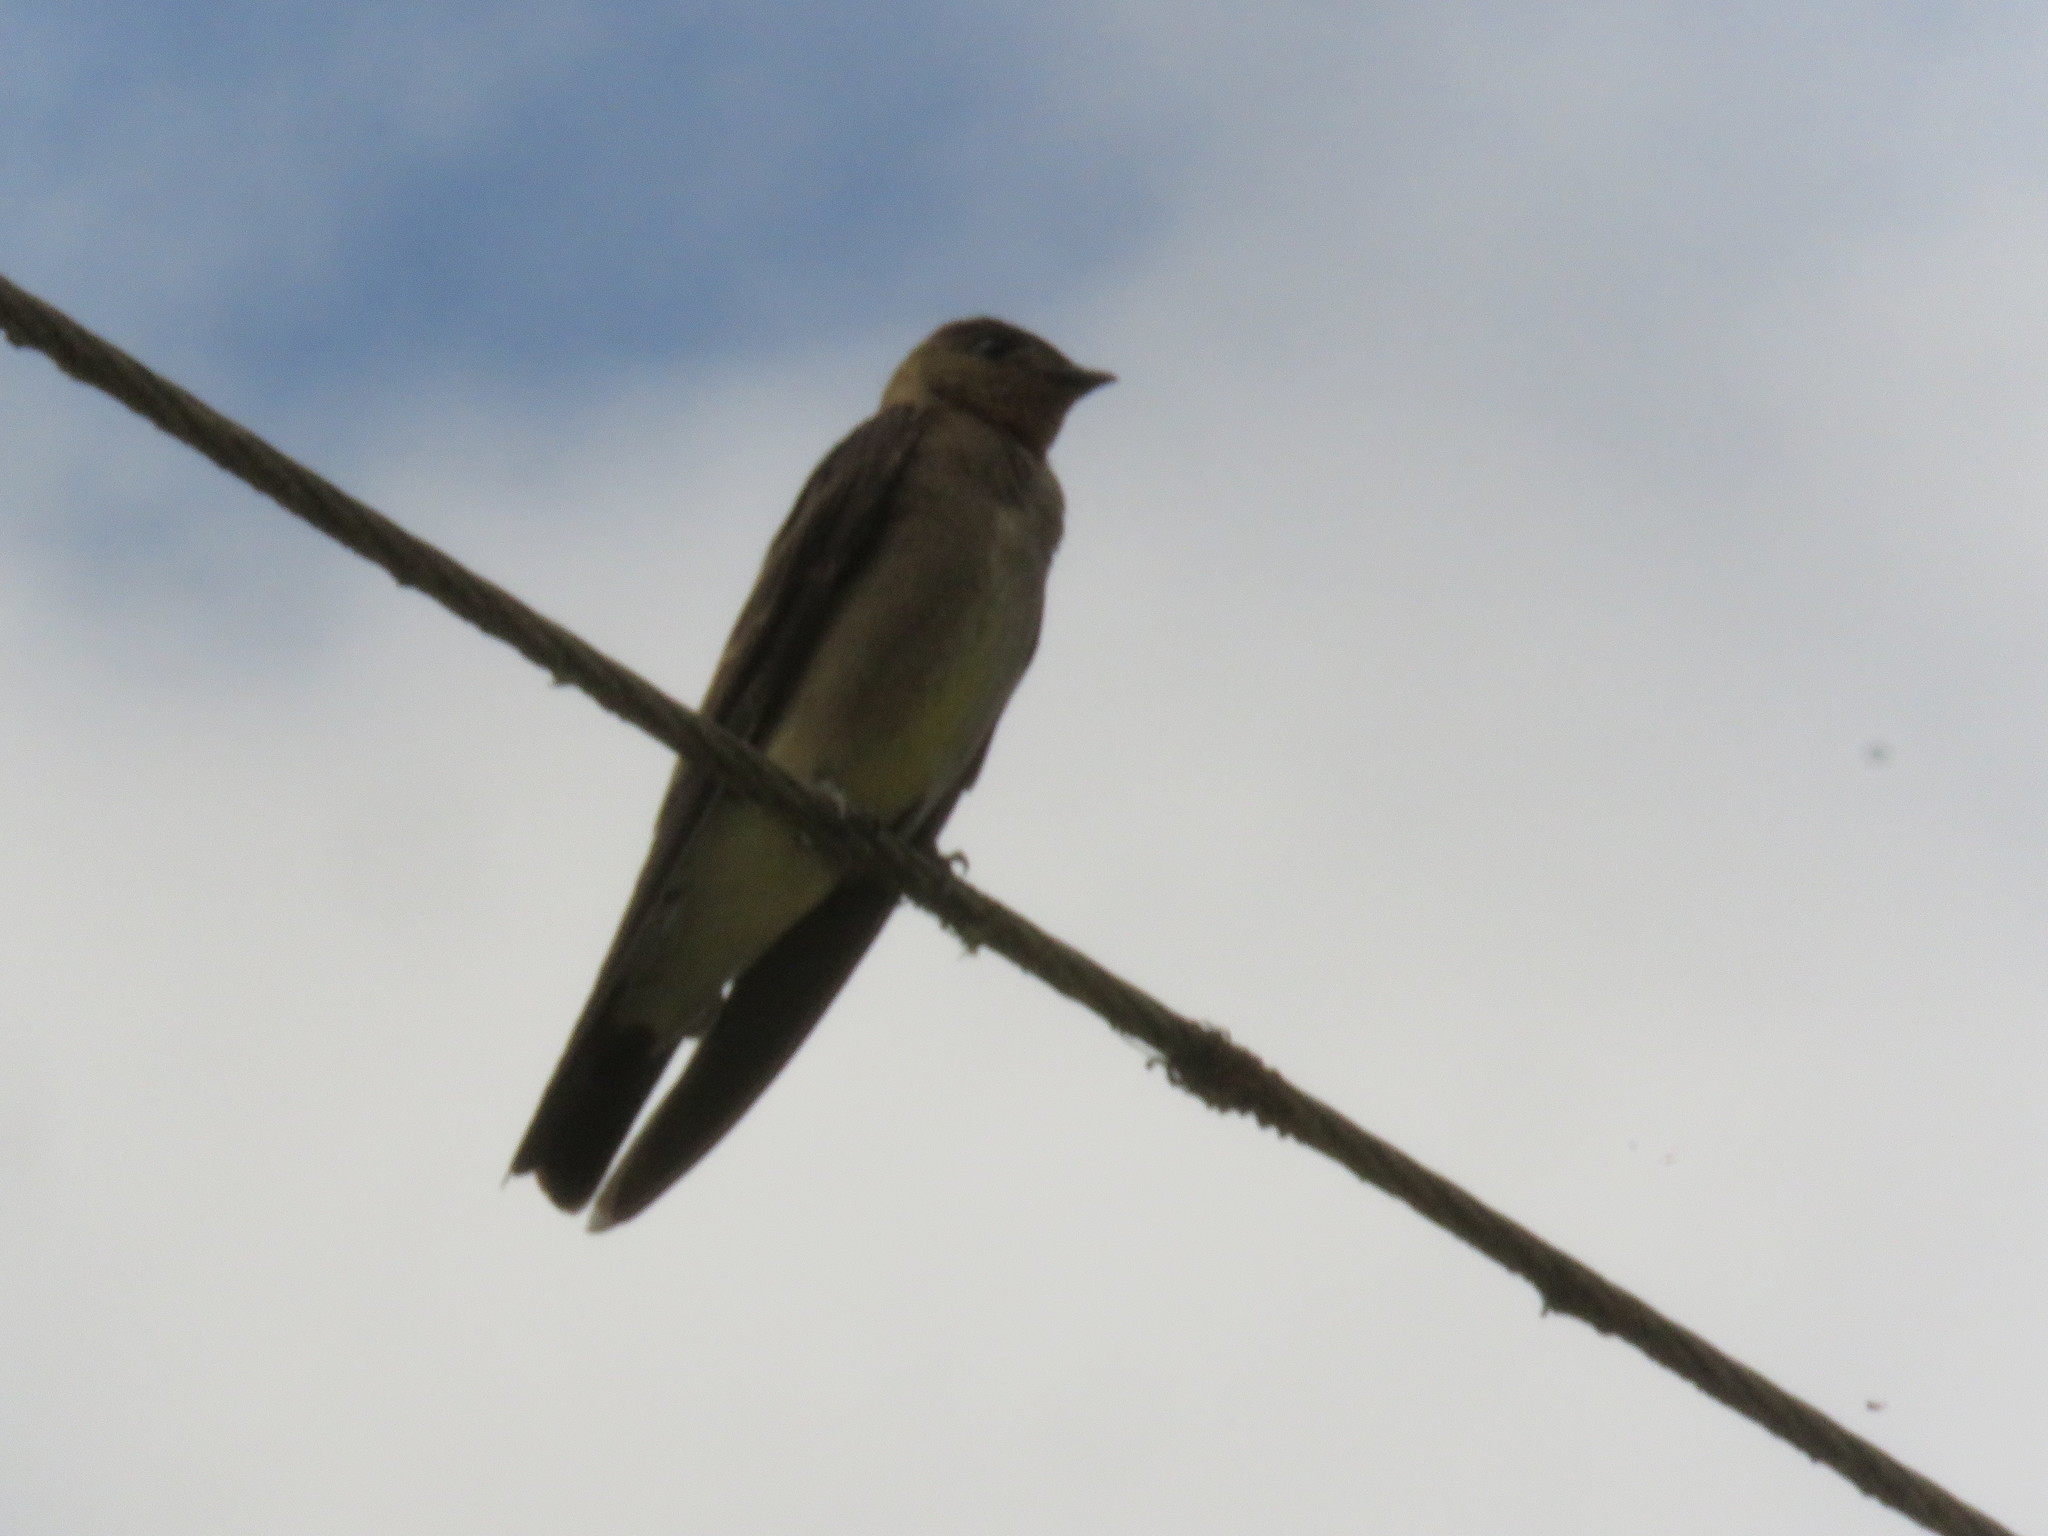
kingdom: Animalia
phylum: Chordata
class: Aves
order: Passeriformes
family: Hirundinidae
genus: Stelgidopteryx
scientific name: Stelgidopteryx ruficollis
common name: Southern rough-winged swallow
